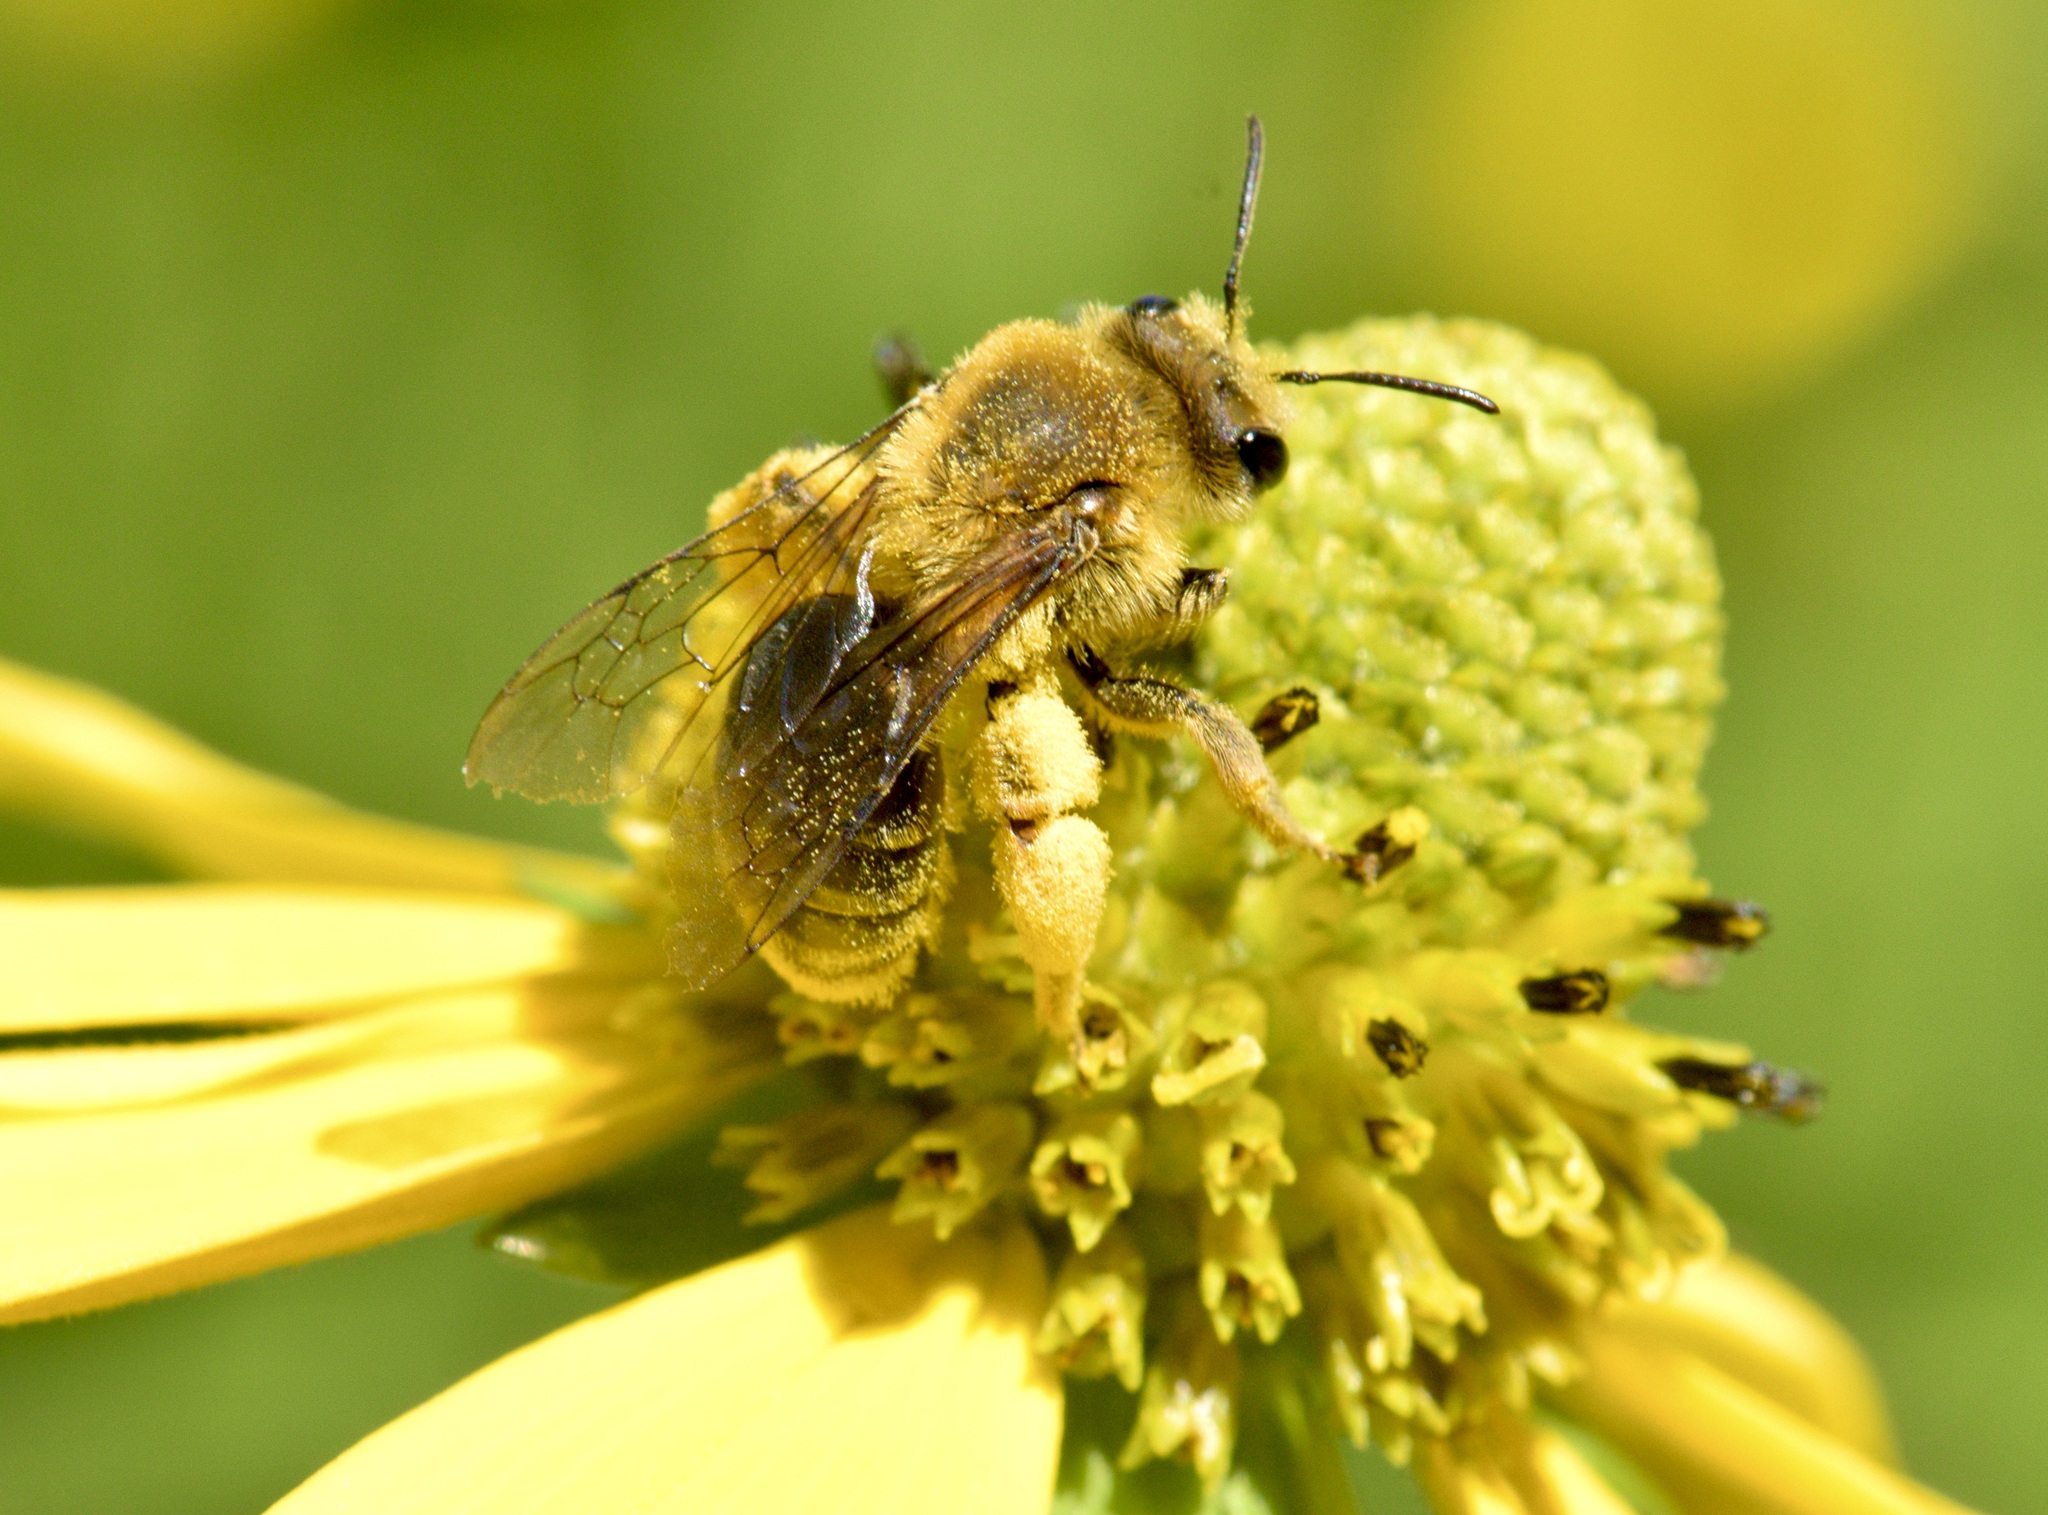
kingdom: Animalia
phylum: Arthropoda
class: Insecta
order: Hymenoptera
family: Andrenidae
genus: Andrena
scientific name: Andrena helianthi
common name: Sunflower mining bee
